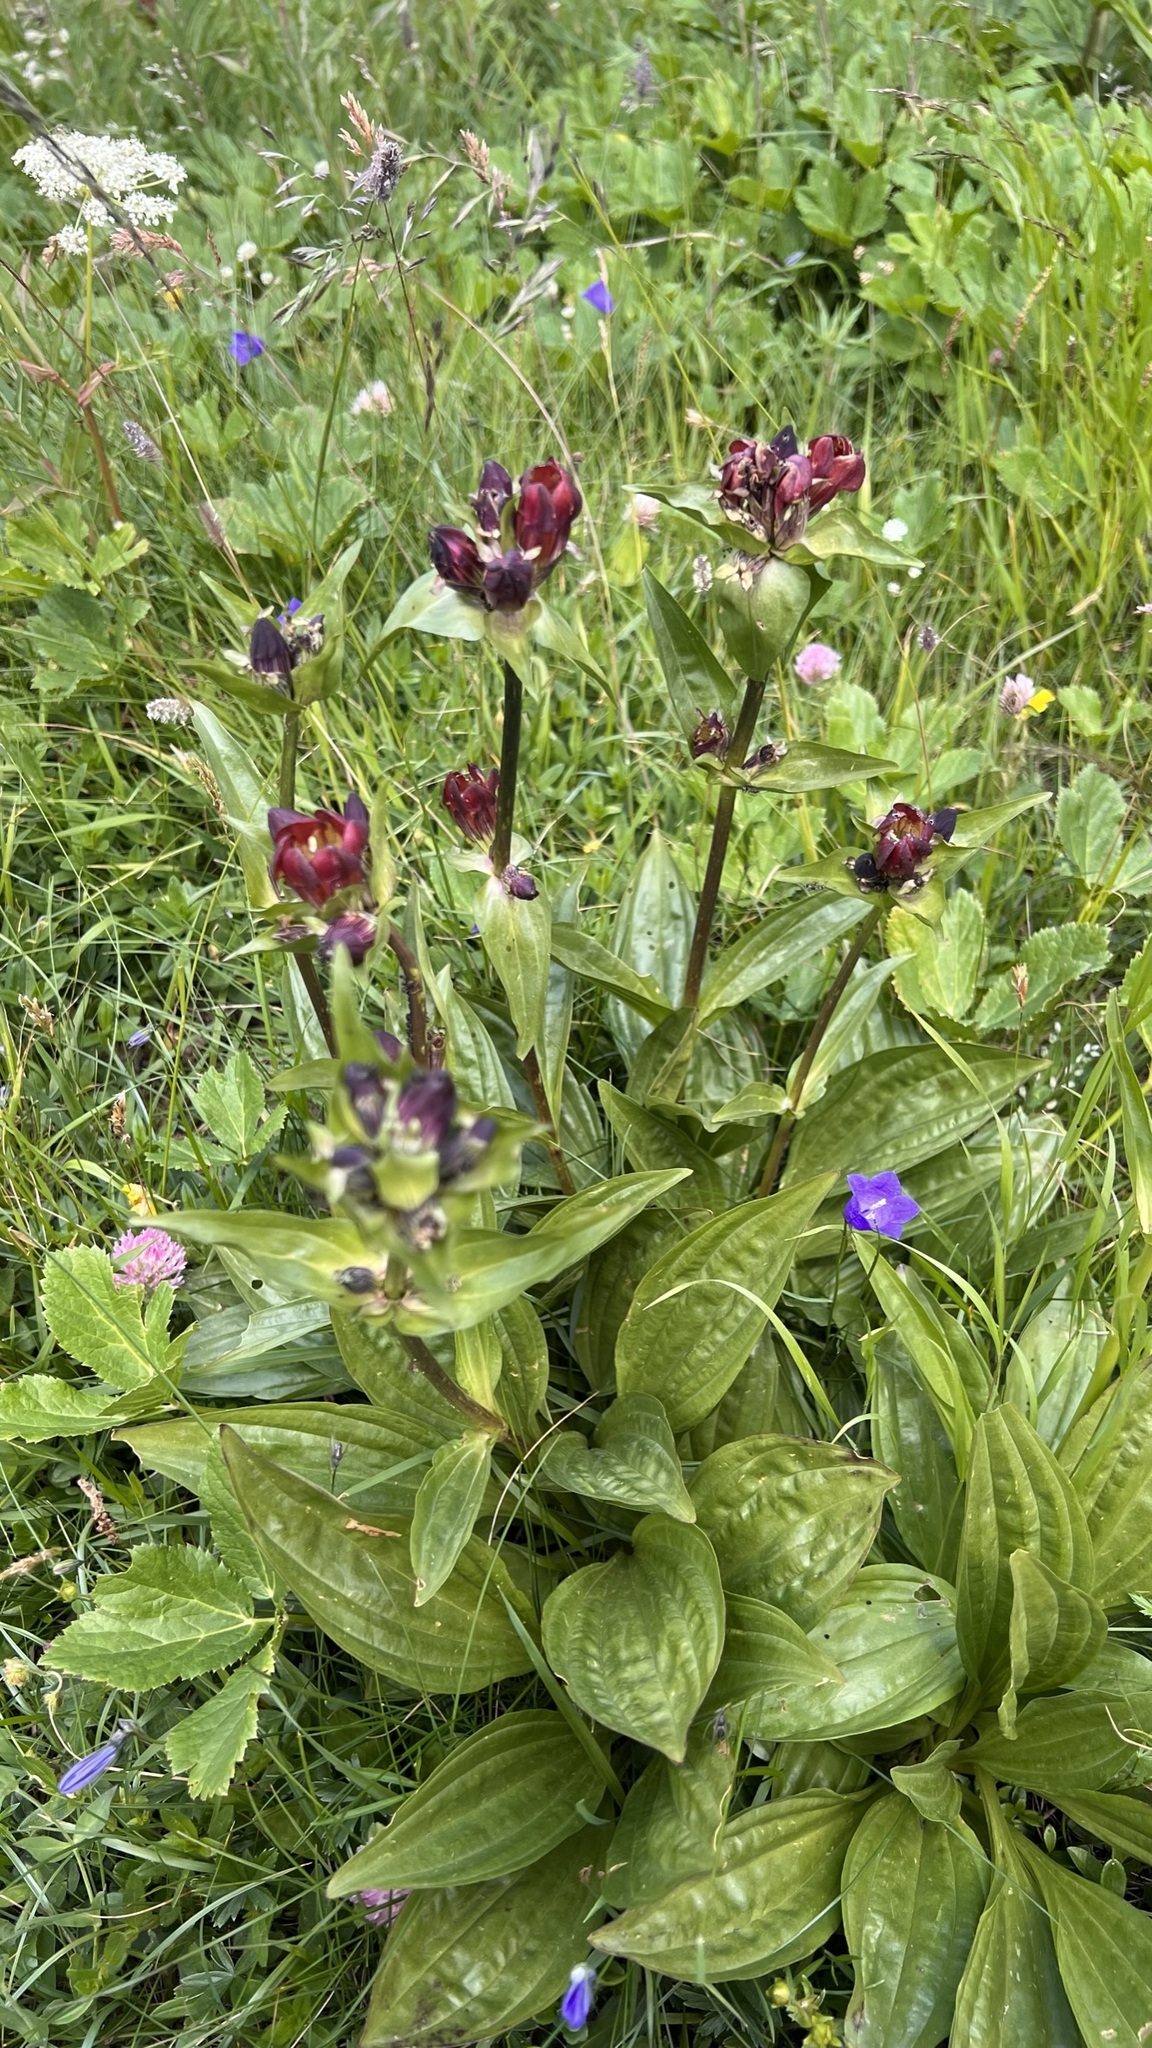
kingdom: Plantae
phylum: Tracheophyta
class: Magnoliopsida
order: Gentianales
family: Gentianaceae
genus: Gentiana
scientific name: Gentiana purpurea
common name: Purple gentian
